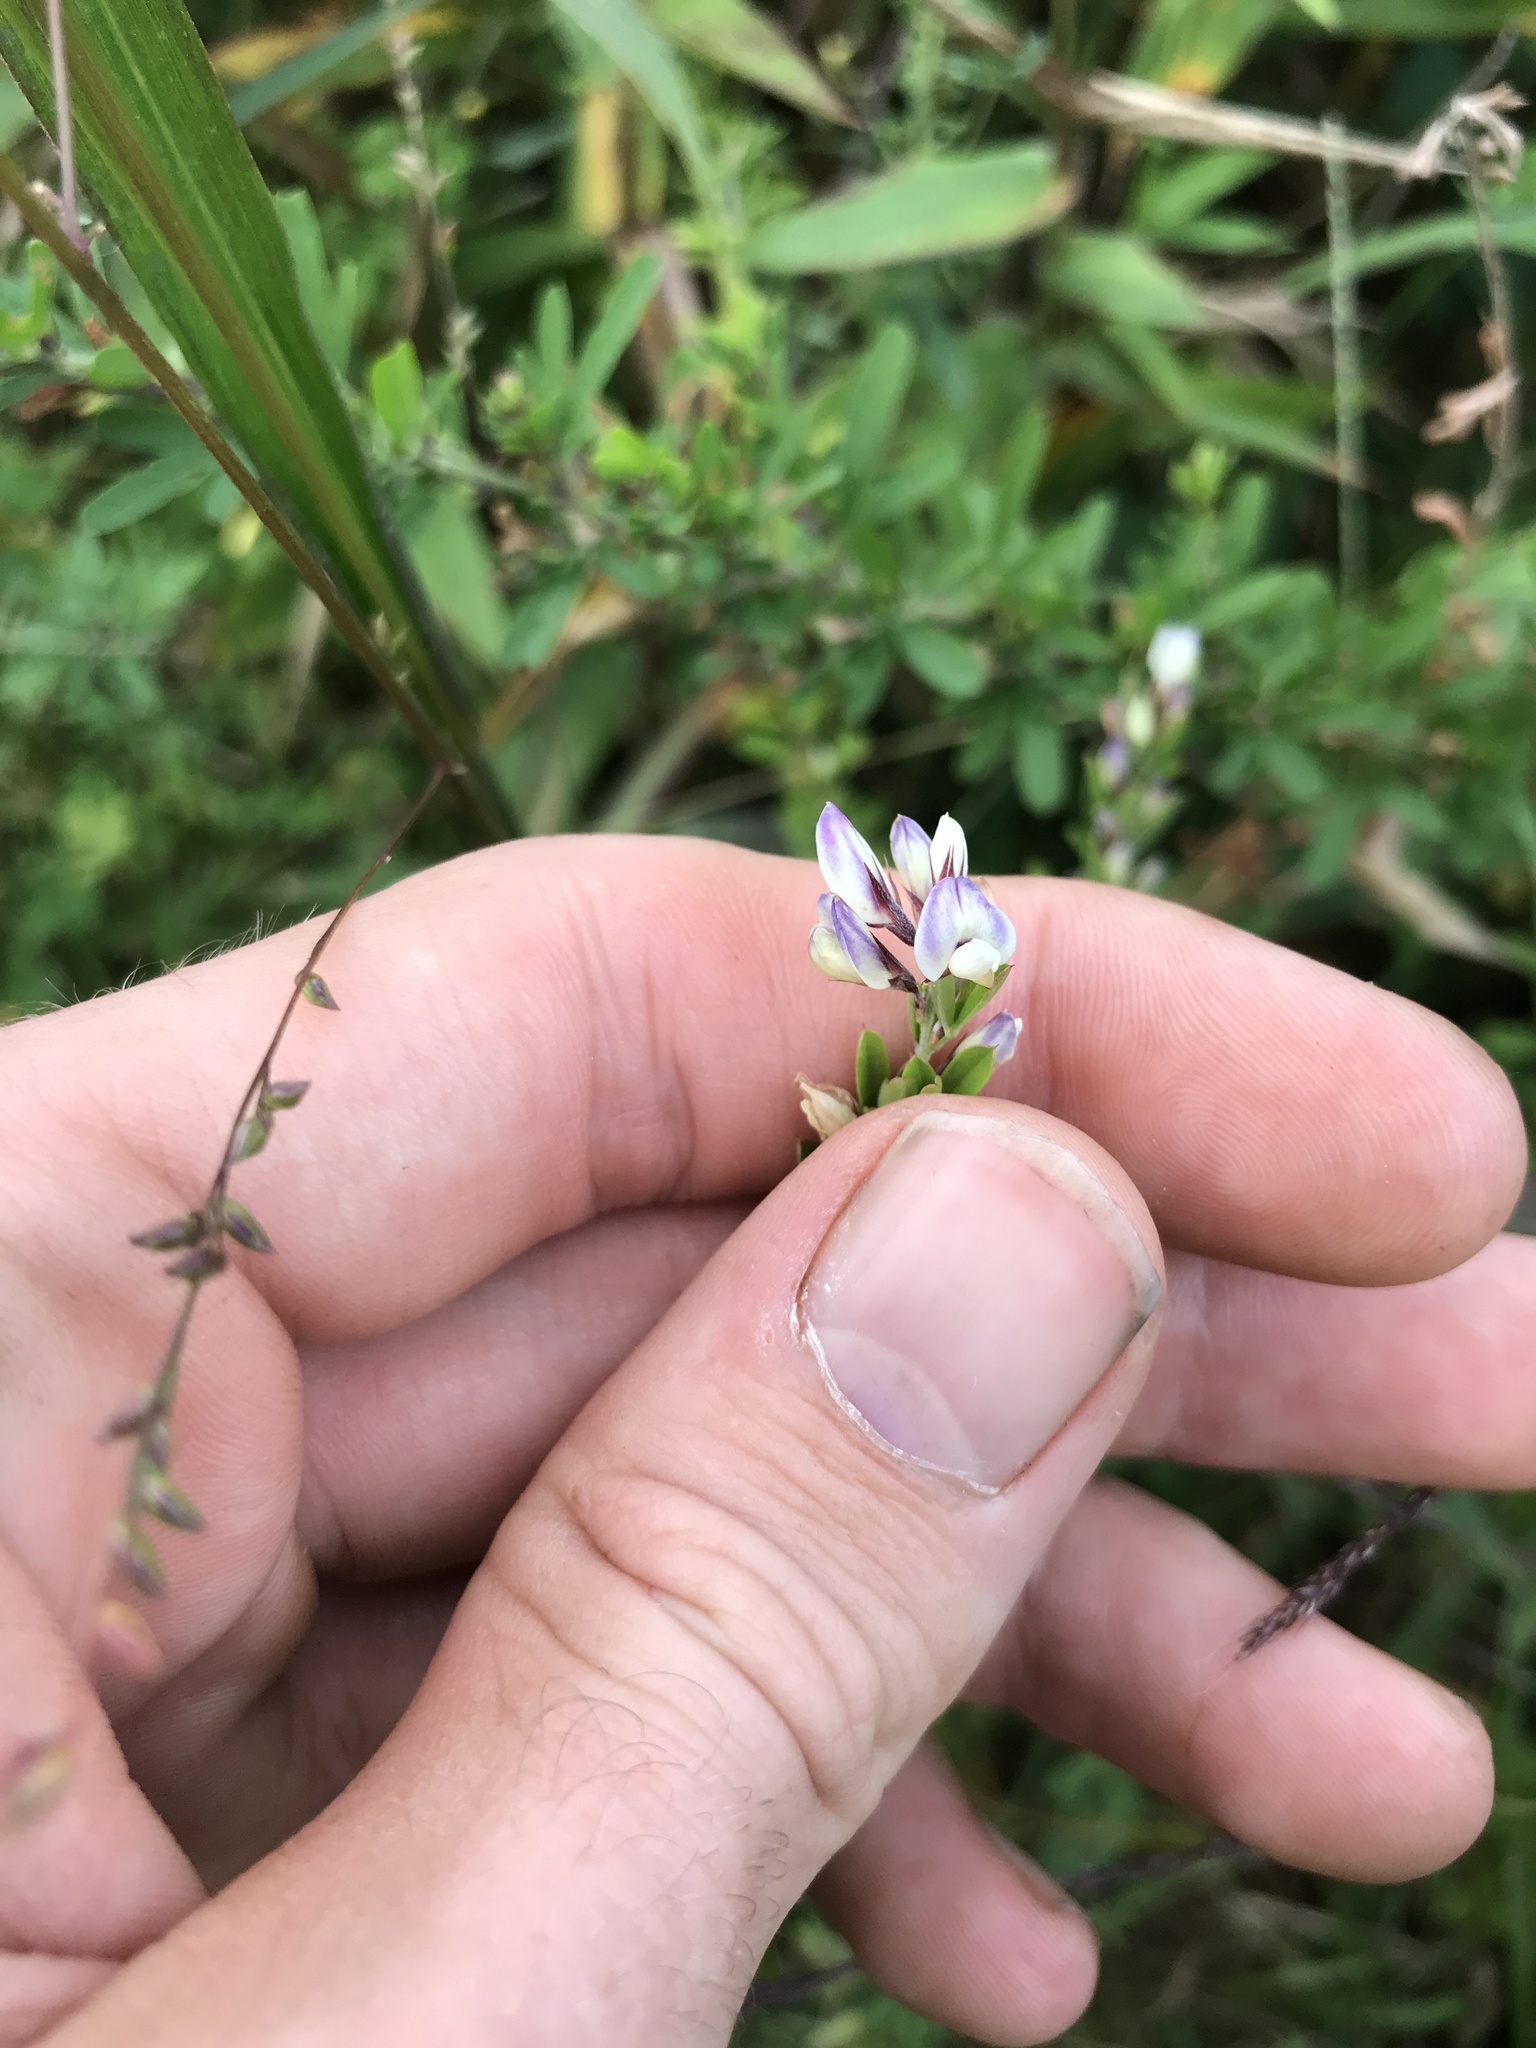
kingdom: Plantae
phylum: Tracheophyta
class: Magnoliopsida
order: Fabales
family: Fabaceae
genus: Lespedeza
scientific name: Lespedeza cuneata
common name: Chinese bush-clover
